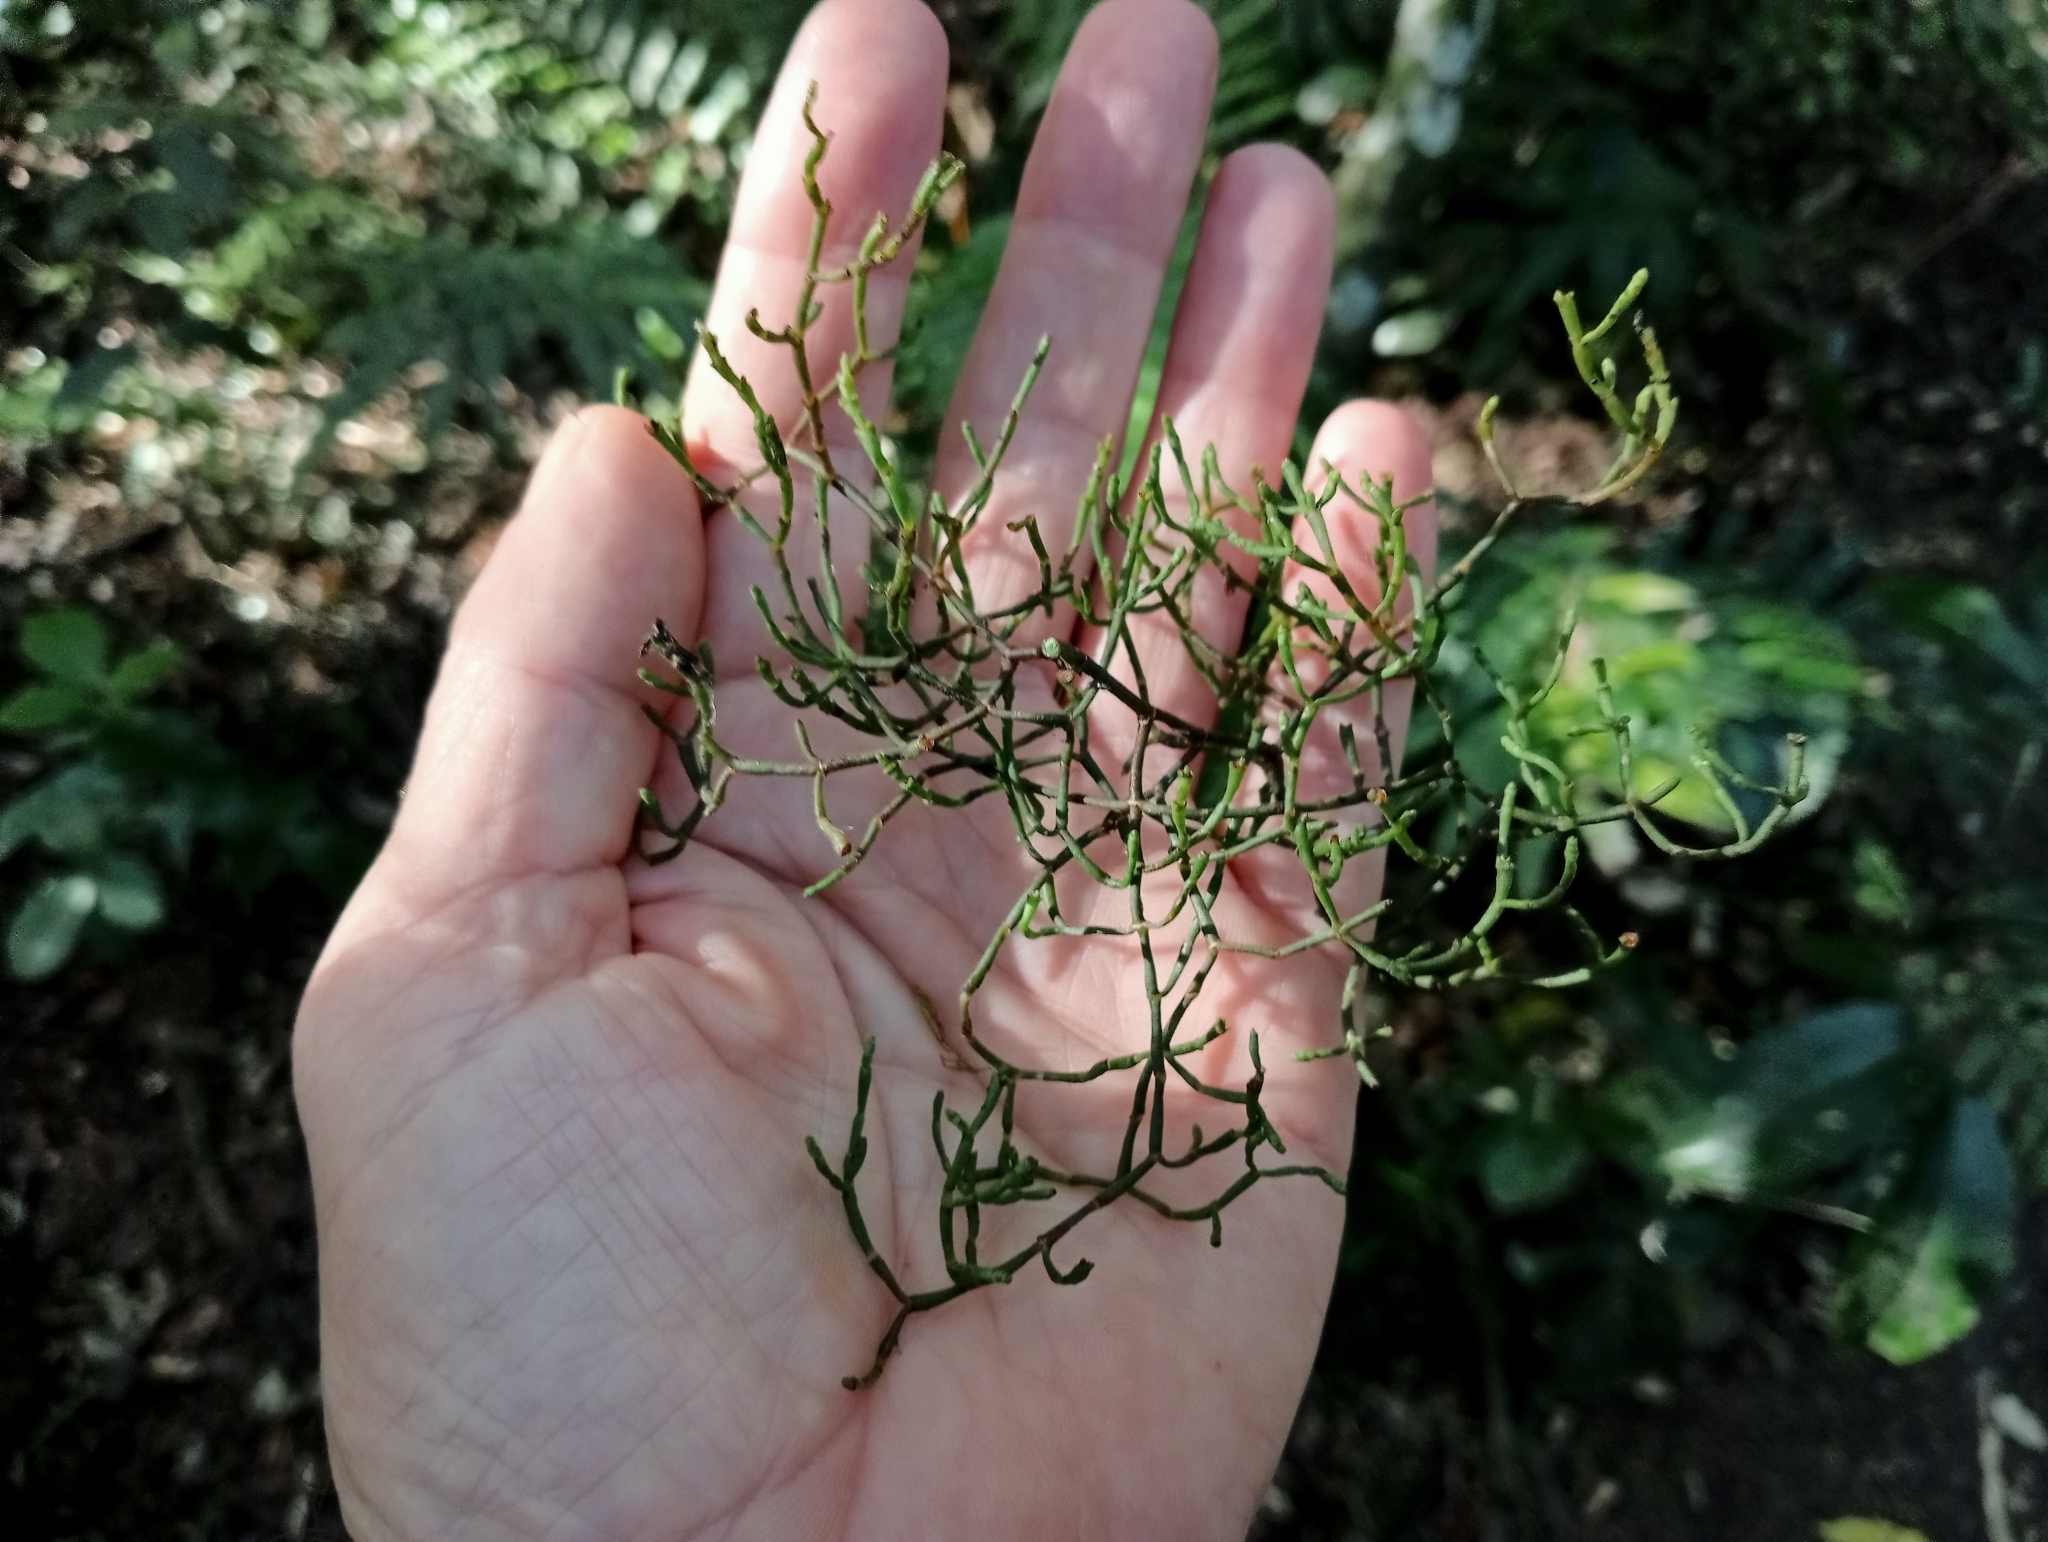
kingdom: Plantae
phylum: Tracheophyta
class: Magnoliopsida
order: Santalales
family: Viscaceae
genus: Korthalsella
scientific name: Korthalsella salicornioides
